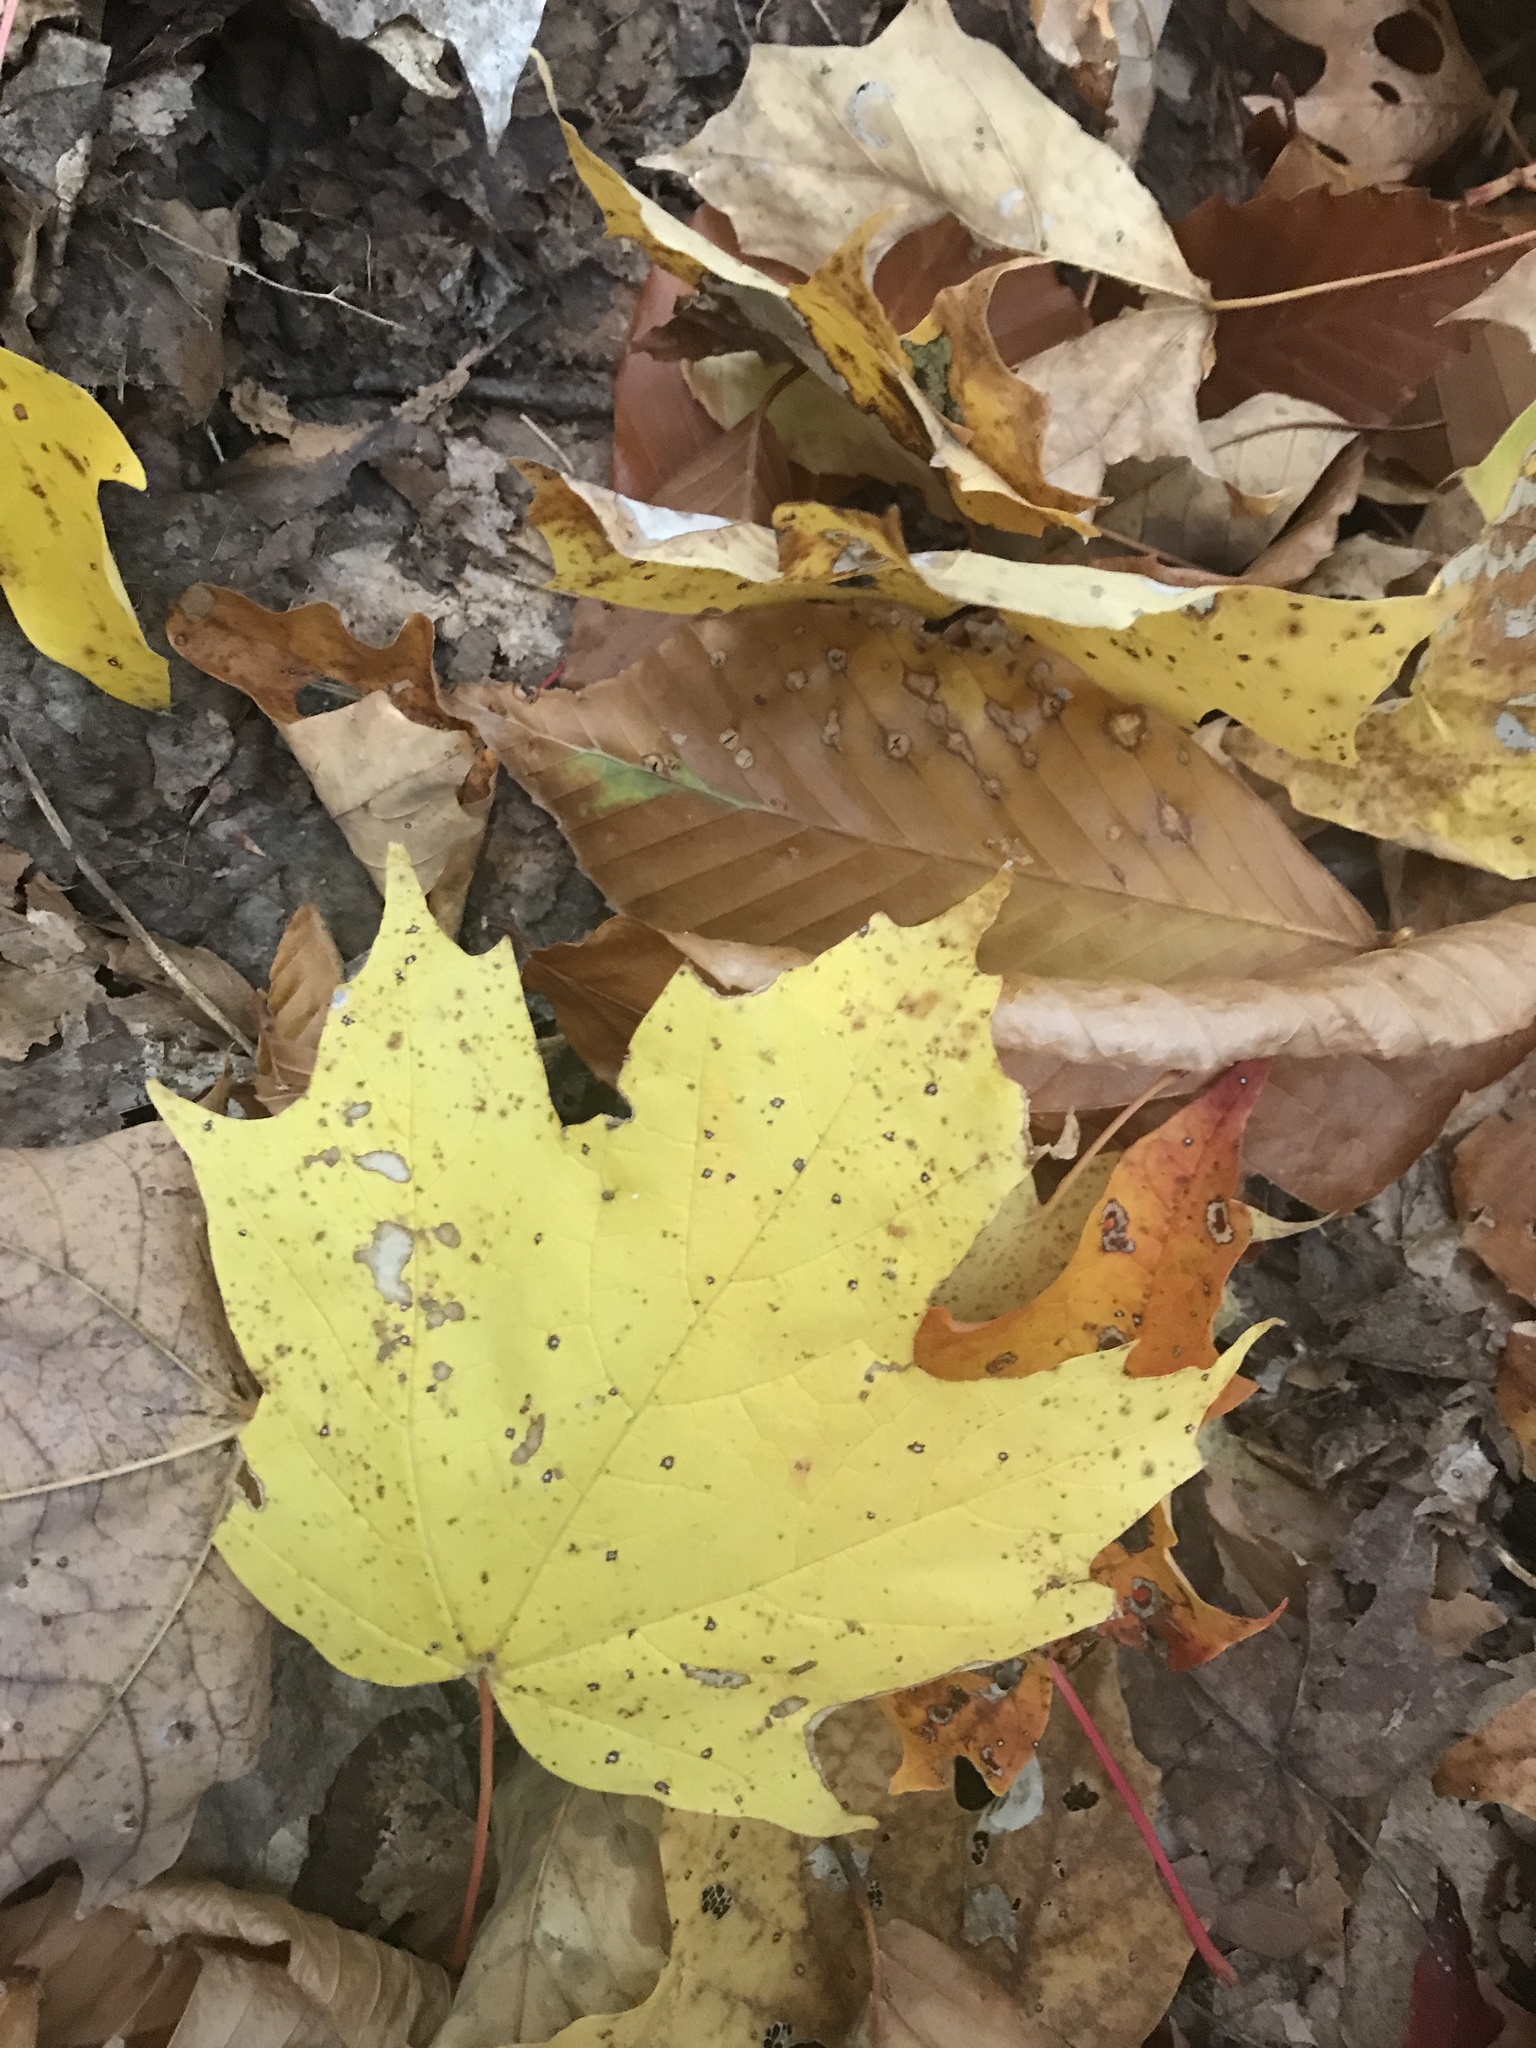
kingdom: Plantae
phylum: Tracheophyta
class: Magnoliopsida
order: Sapindales
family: Sapindaceae
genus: Acer
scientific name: Acer saccharum
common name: Sugar maple
